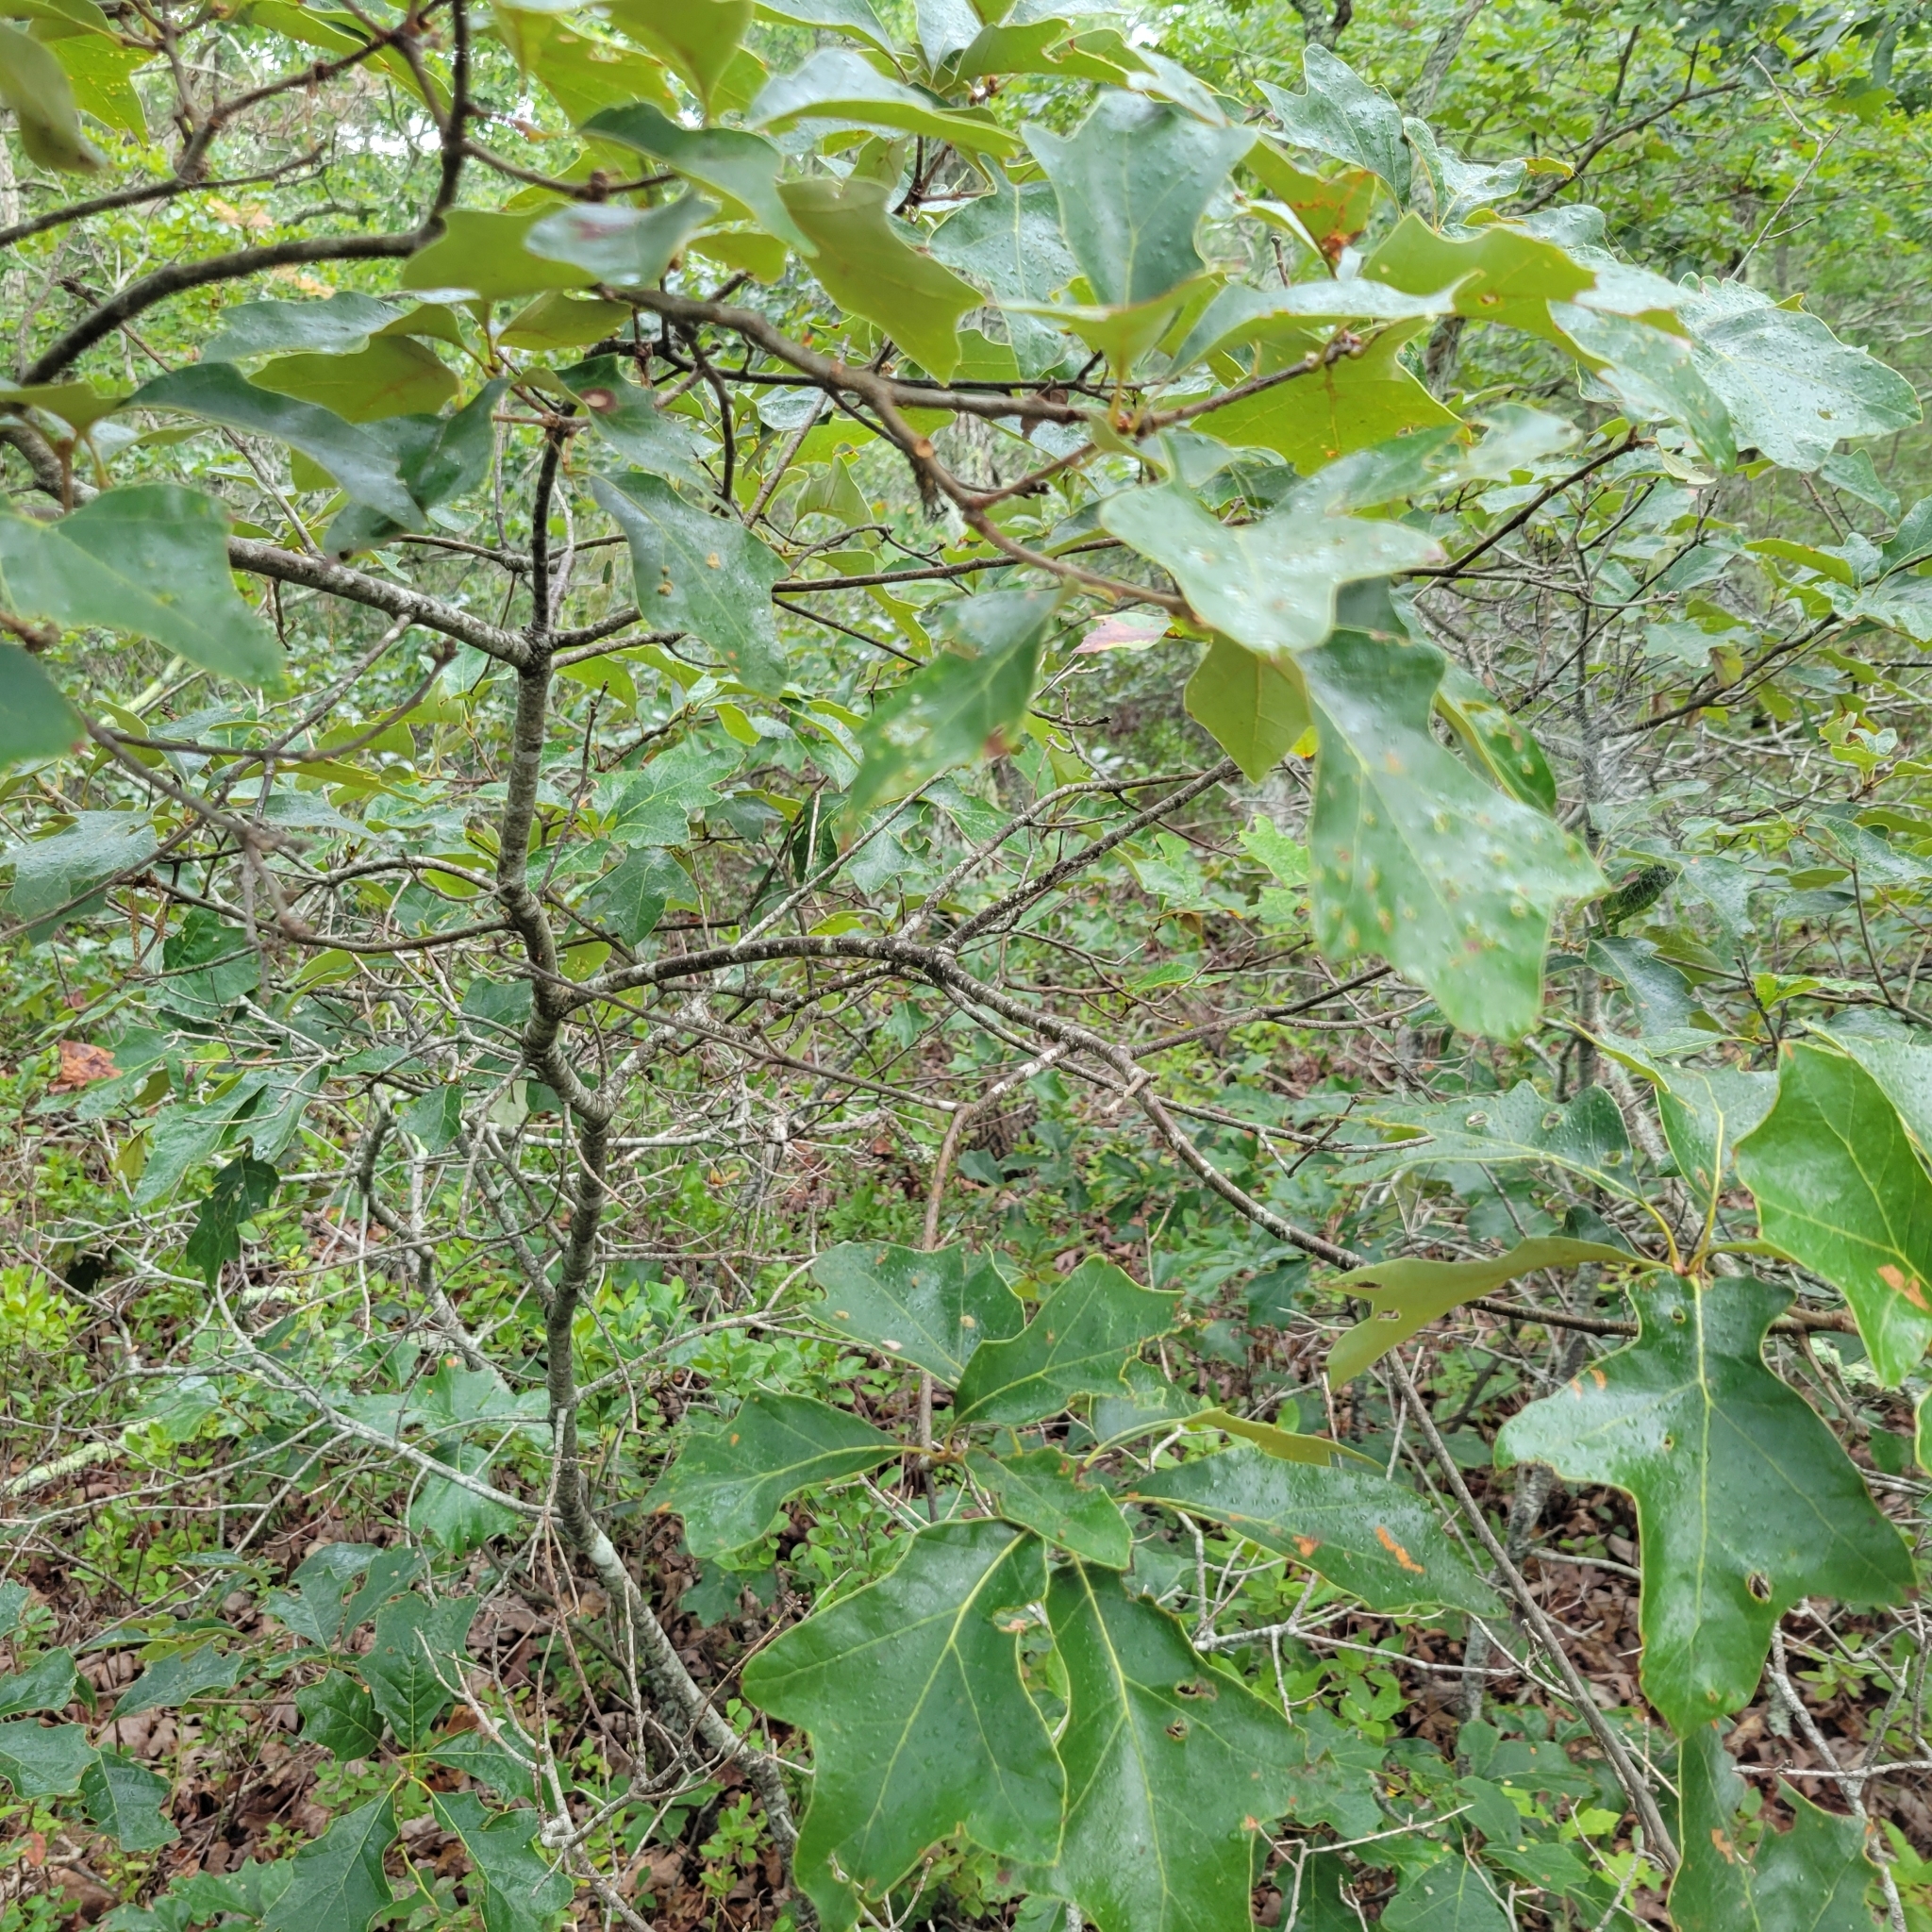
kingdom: Plantae
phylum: Tracheophyta
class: Magnoliopsida
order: Fagales
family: Fagaceae
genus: Quercus
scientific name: Quercus ilicifolia
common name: Bear oak
